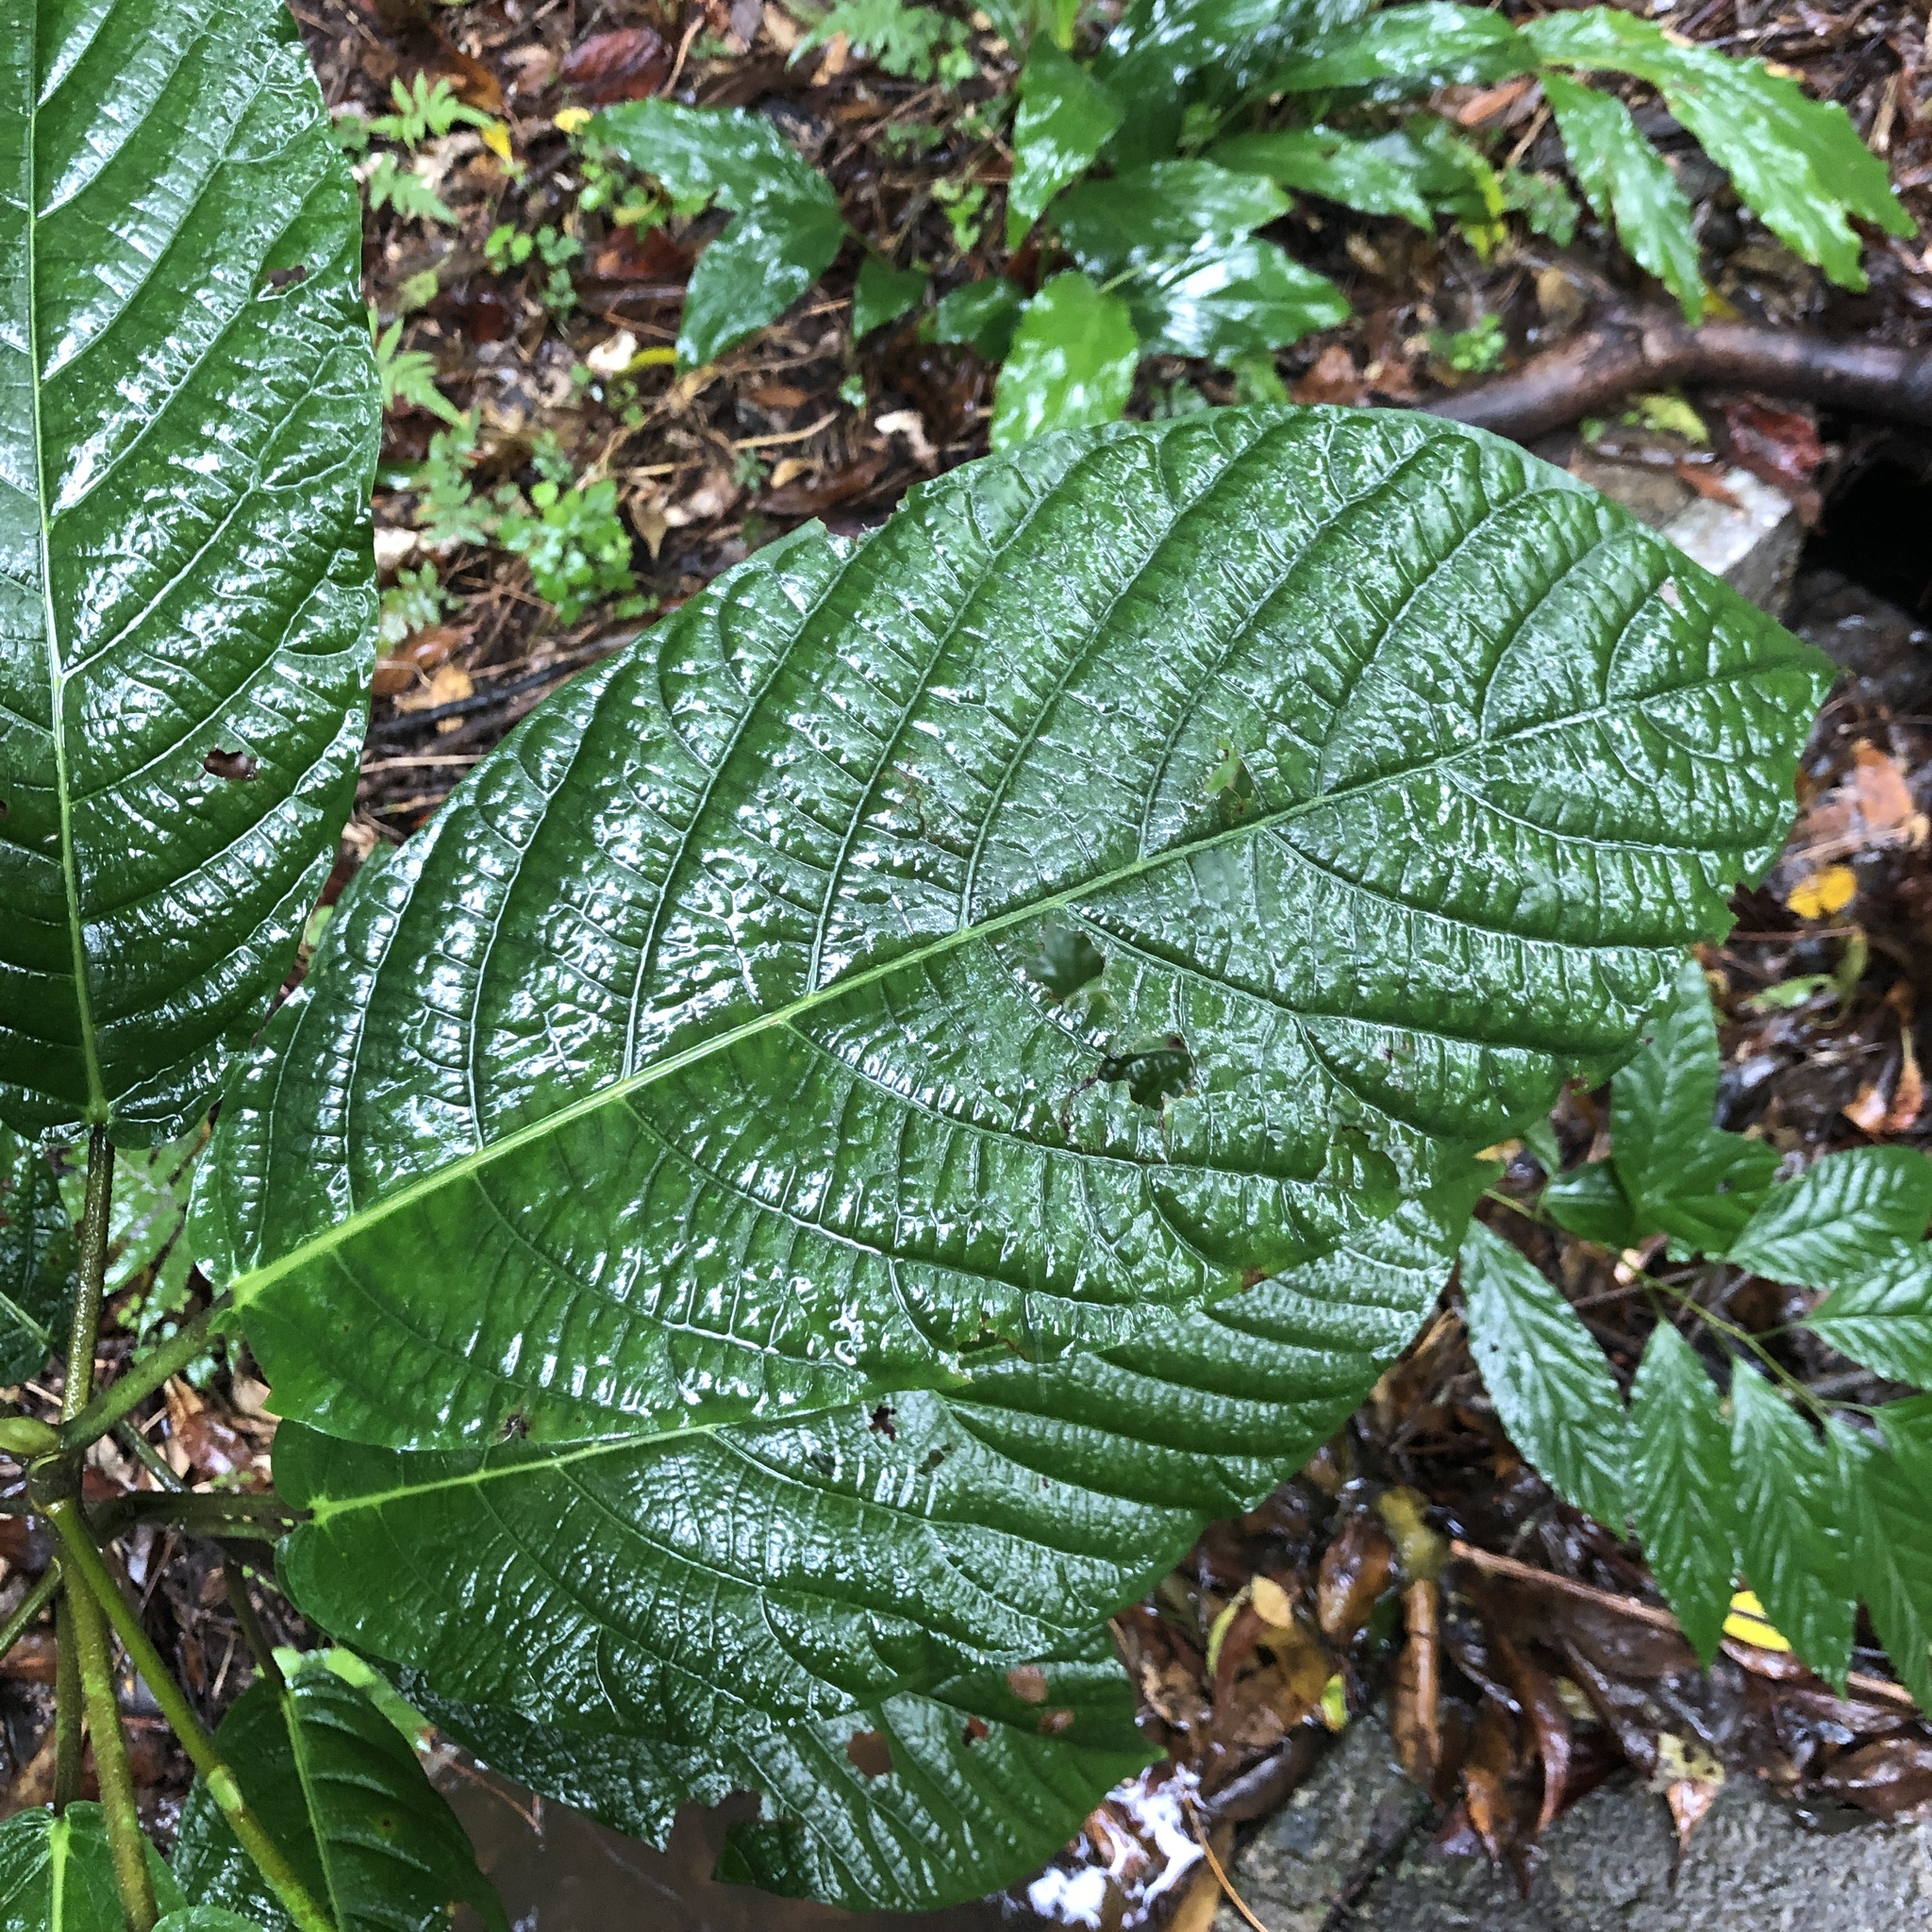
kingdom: Plantae
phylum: Tracheophyta
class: Magnoliopsida
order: Rosales
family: Moraceae
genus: Ficus
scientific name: Ficus benguetensis
